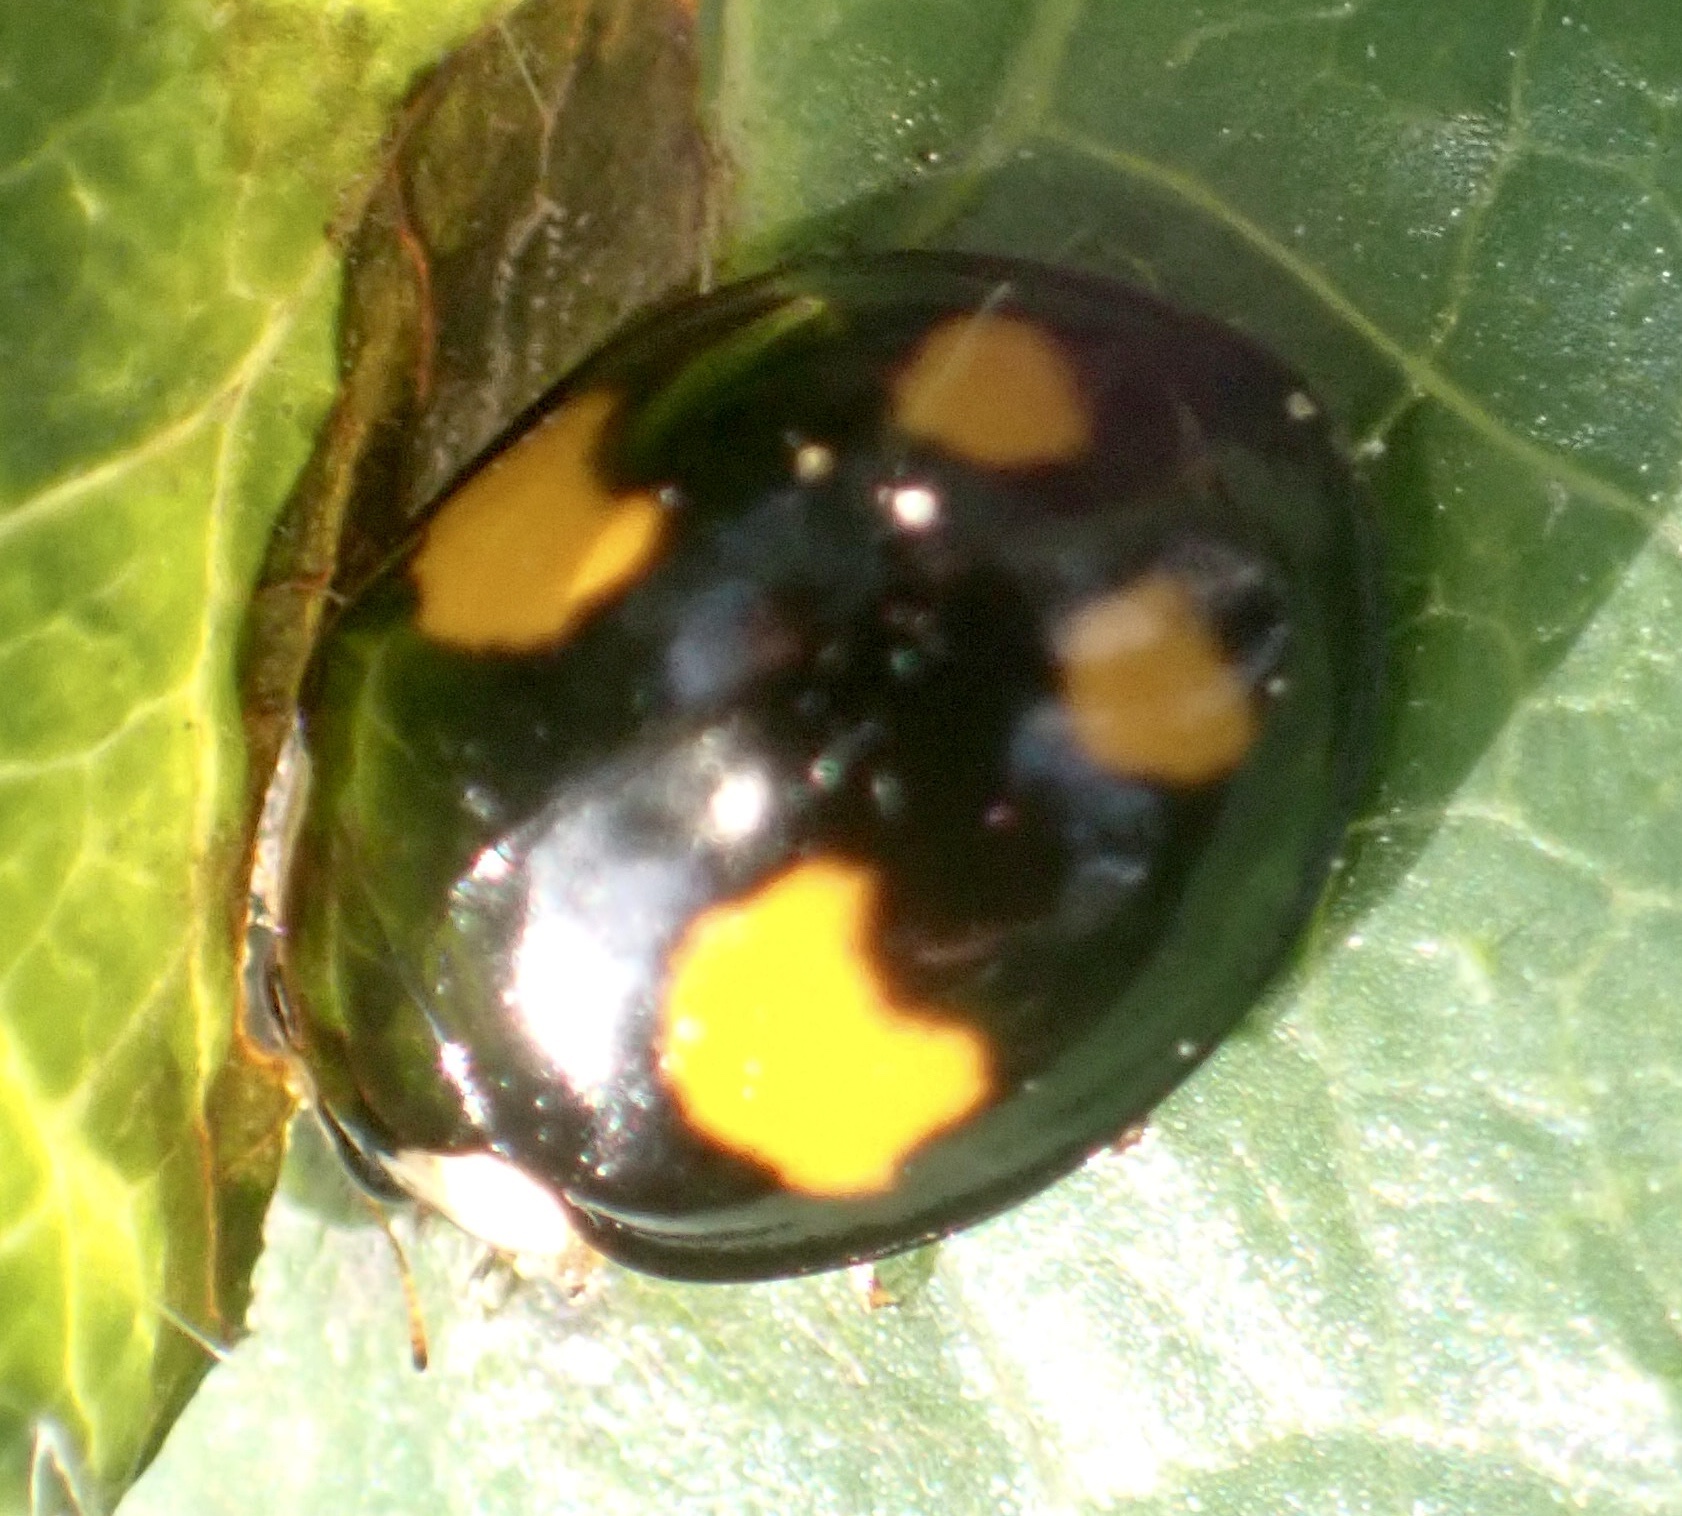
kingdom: Animalia
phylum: Arthropoda
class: Insecta
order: Coleoptera
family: Coccinellidae
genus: Harmonia
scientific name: Harmonia axyridis
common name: Harlequin ladybird
